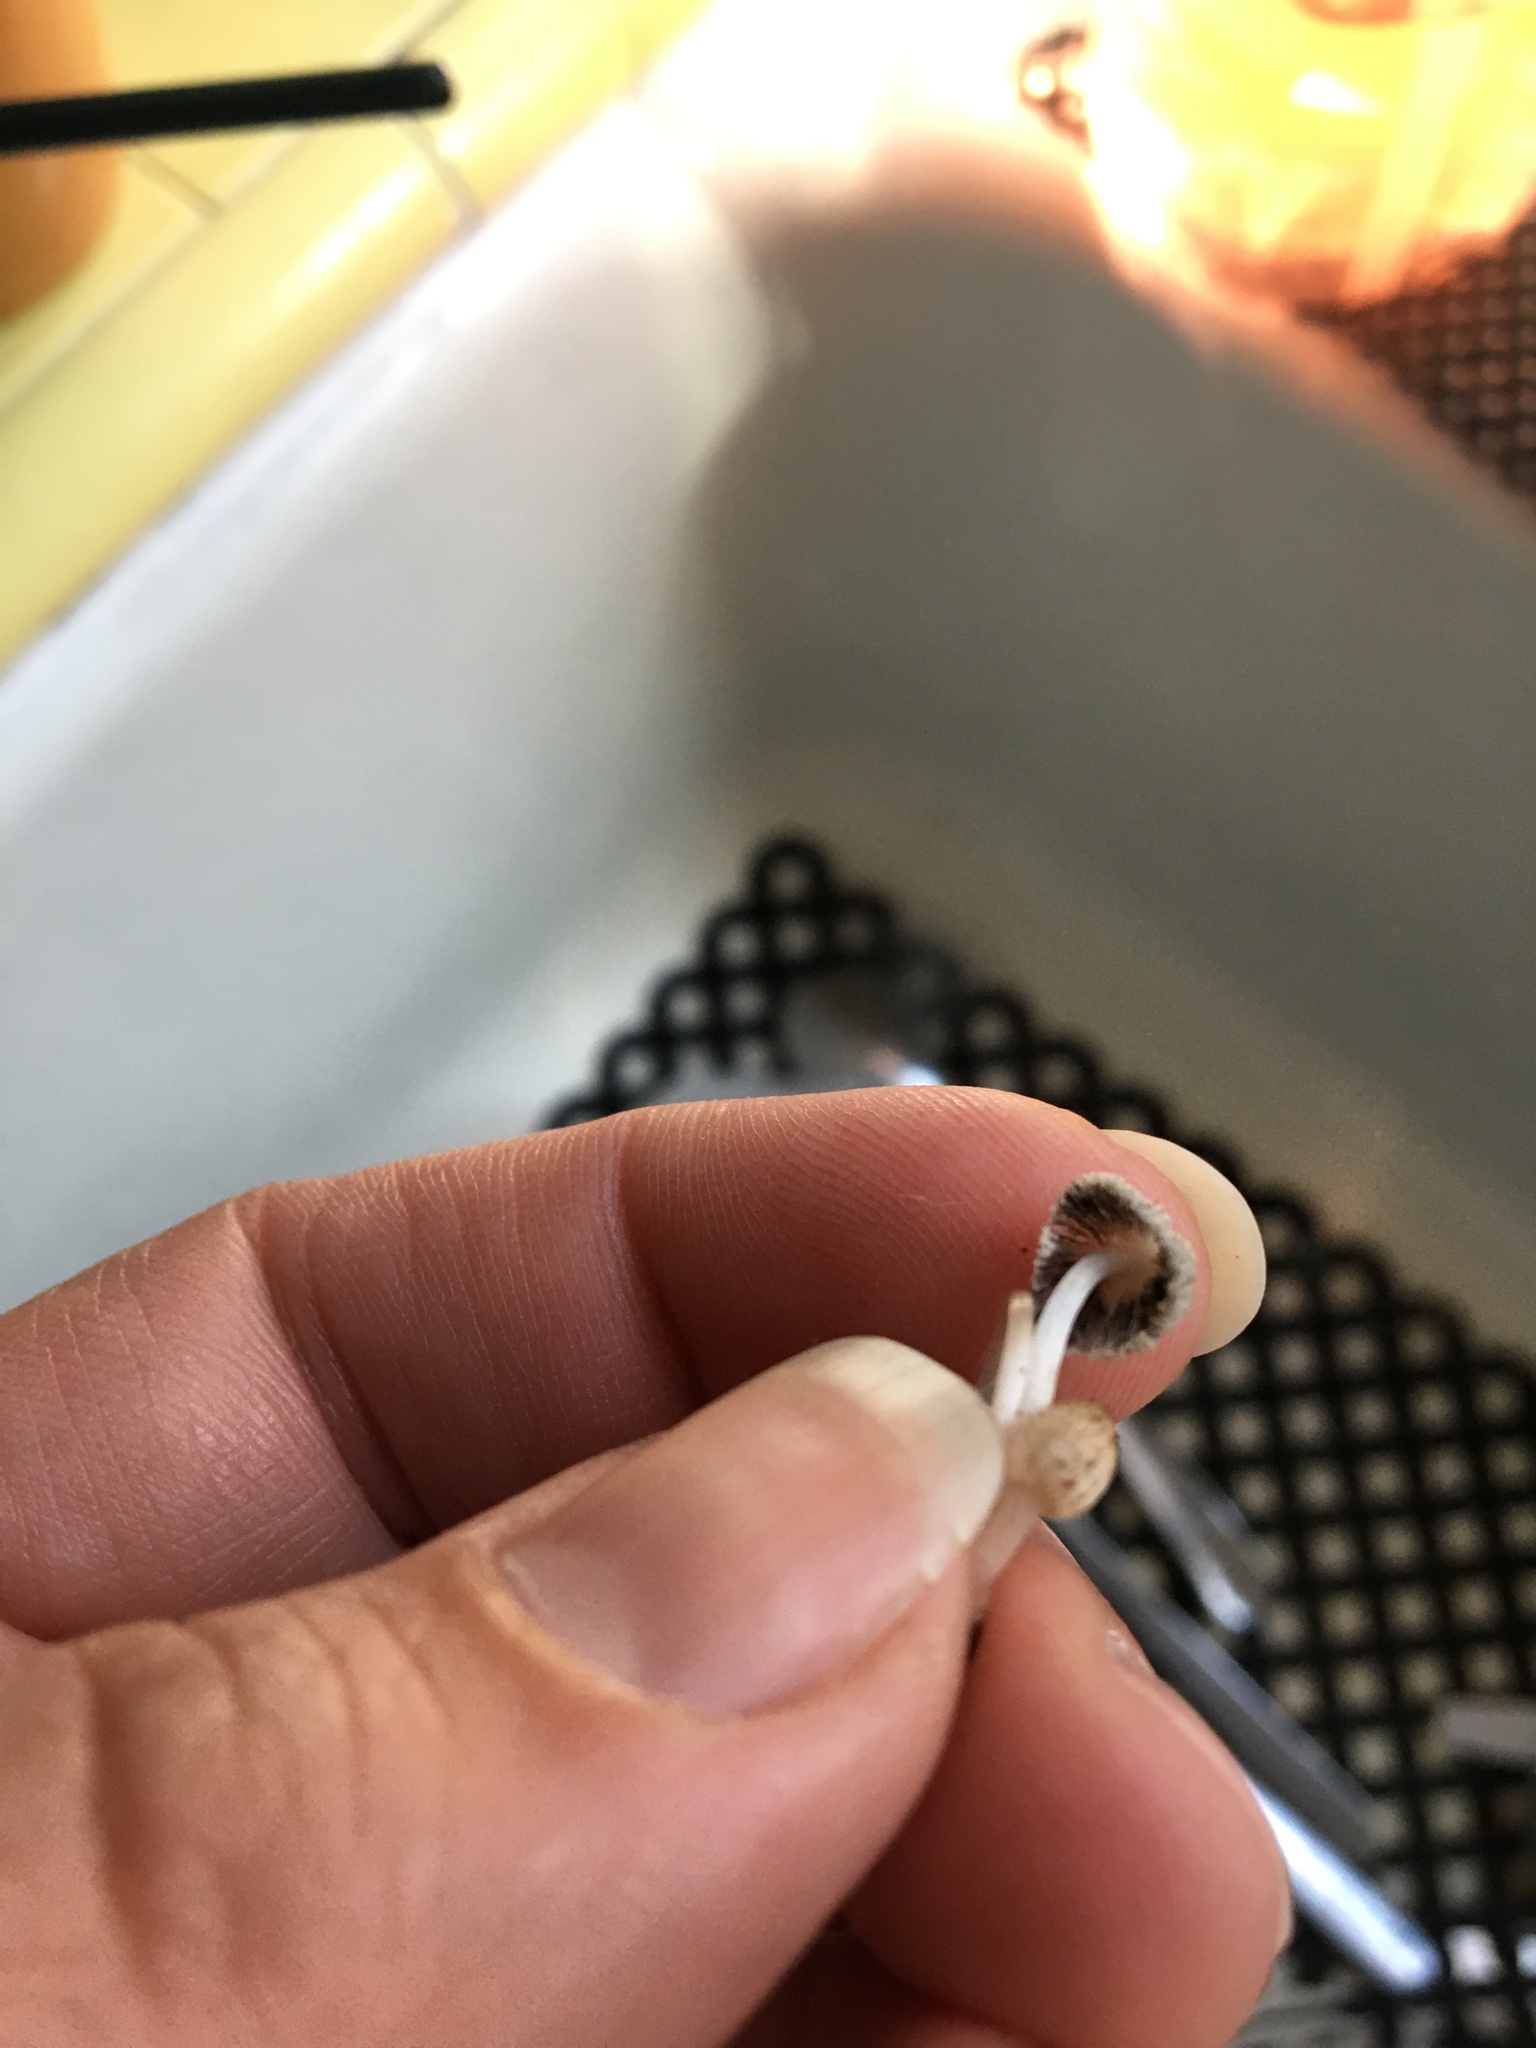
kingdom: Fungi
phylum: Basidiomycota
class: Agaricomycetes
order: Agaricales
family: Psathyrellaceae
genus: Coprinellus
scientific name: Coprinellus curtoides
